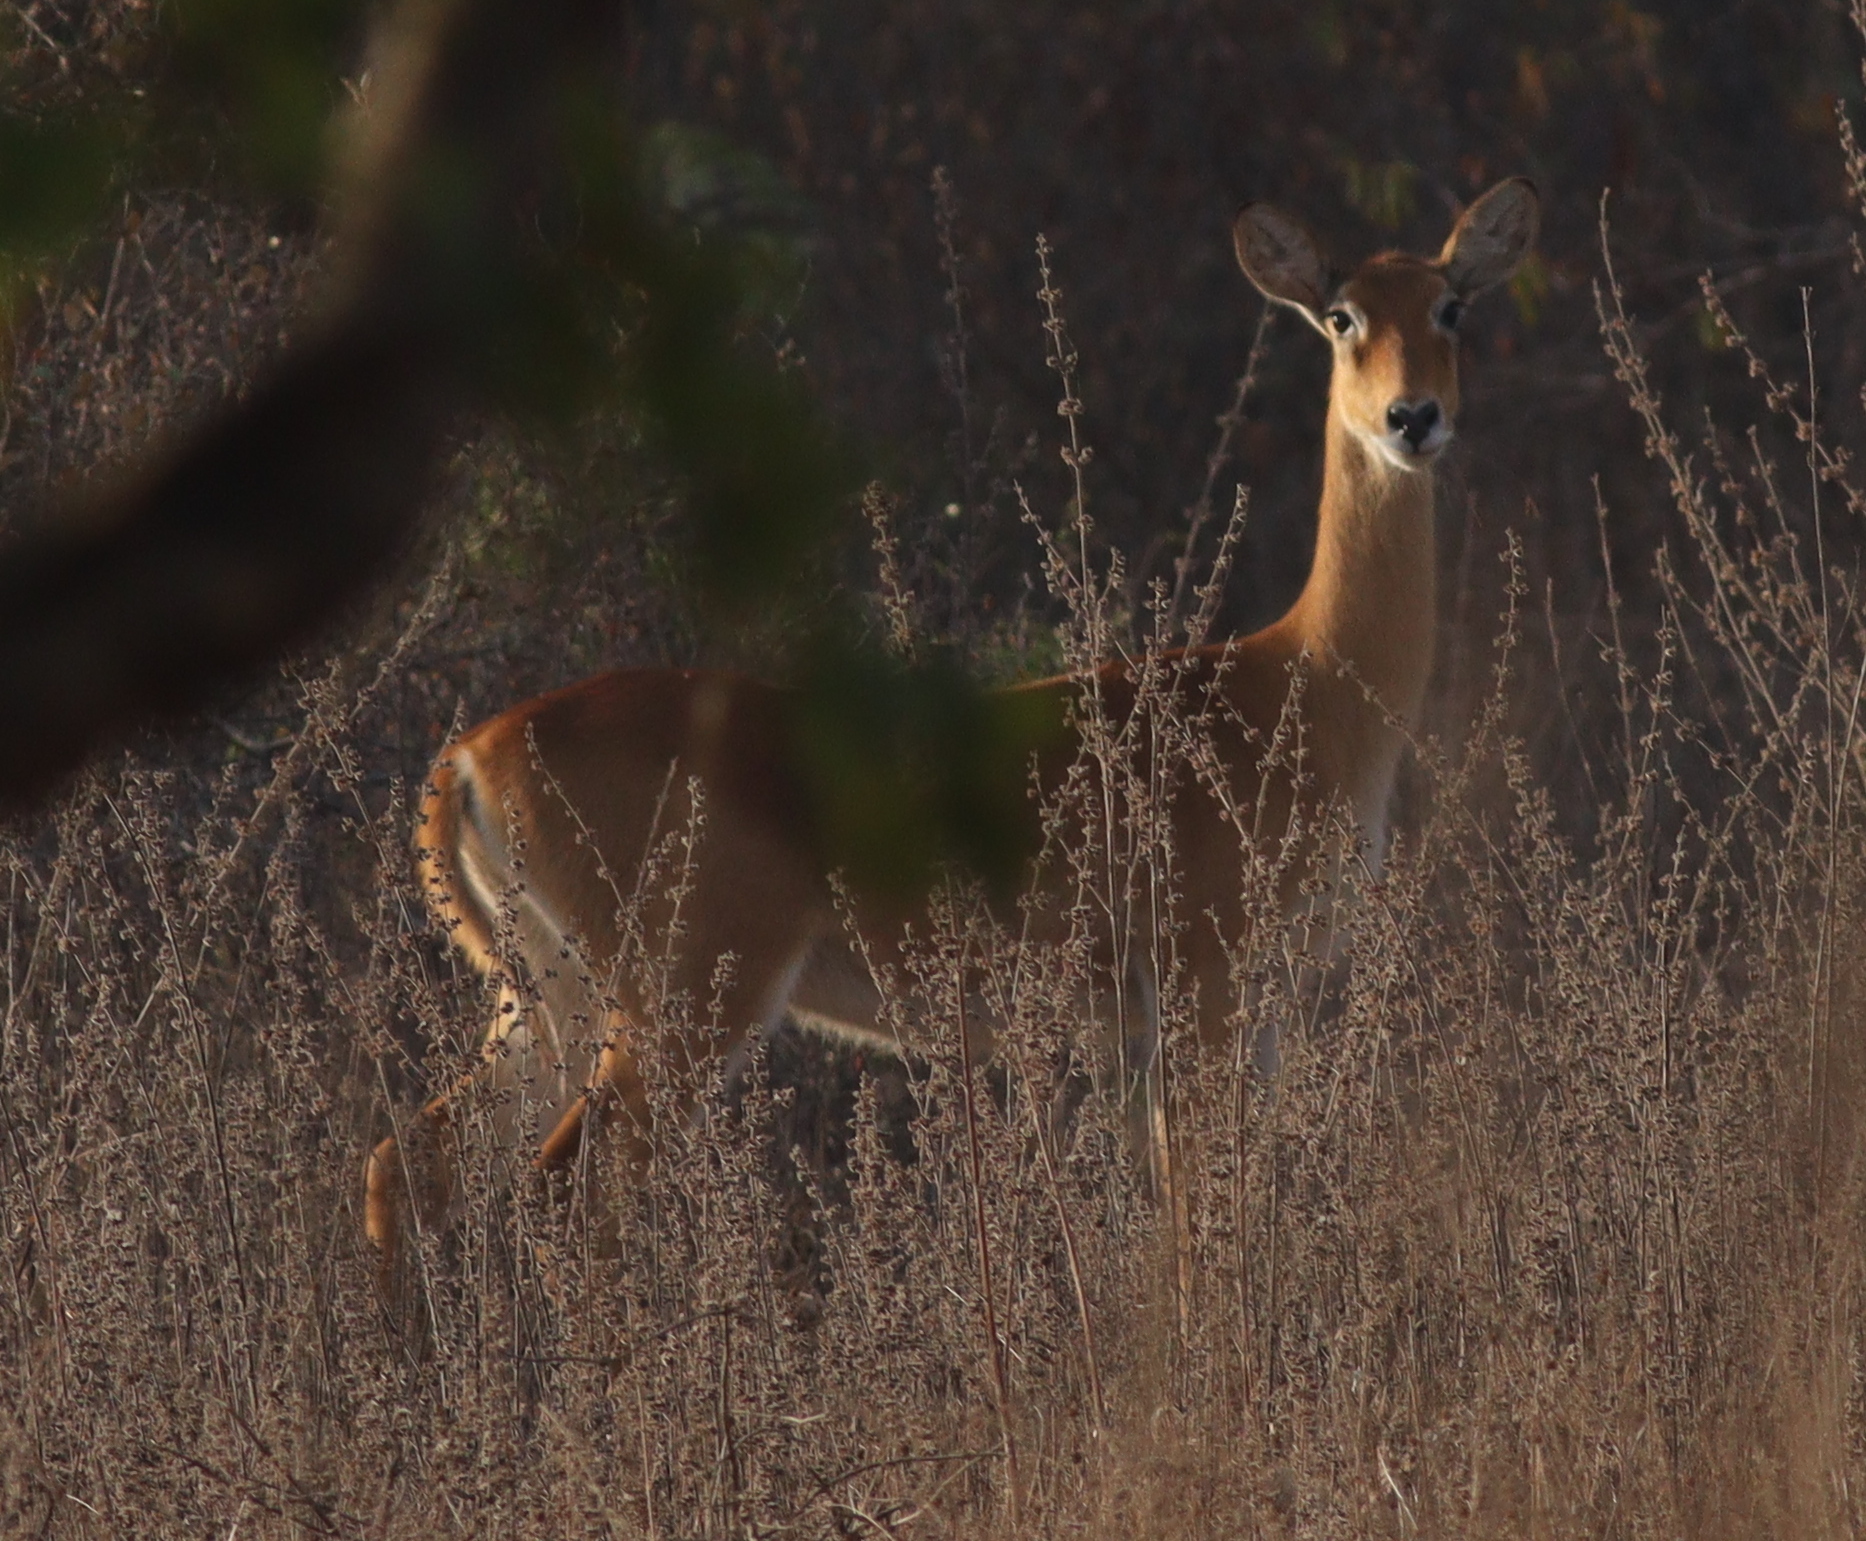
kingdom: Animalia
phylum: Chordata
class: Mammalia
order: Artiodactyla
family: Bovidae
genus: Kobus
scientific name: Kobus kob
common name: Kob
